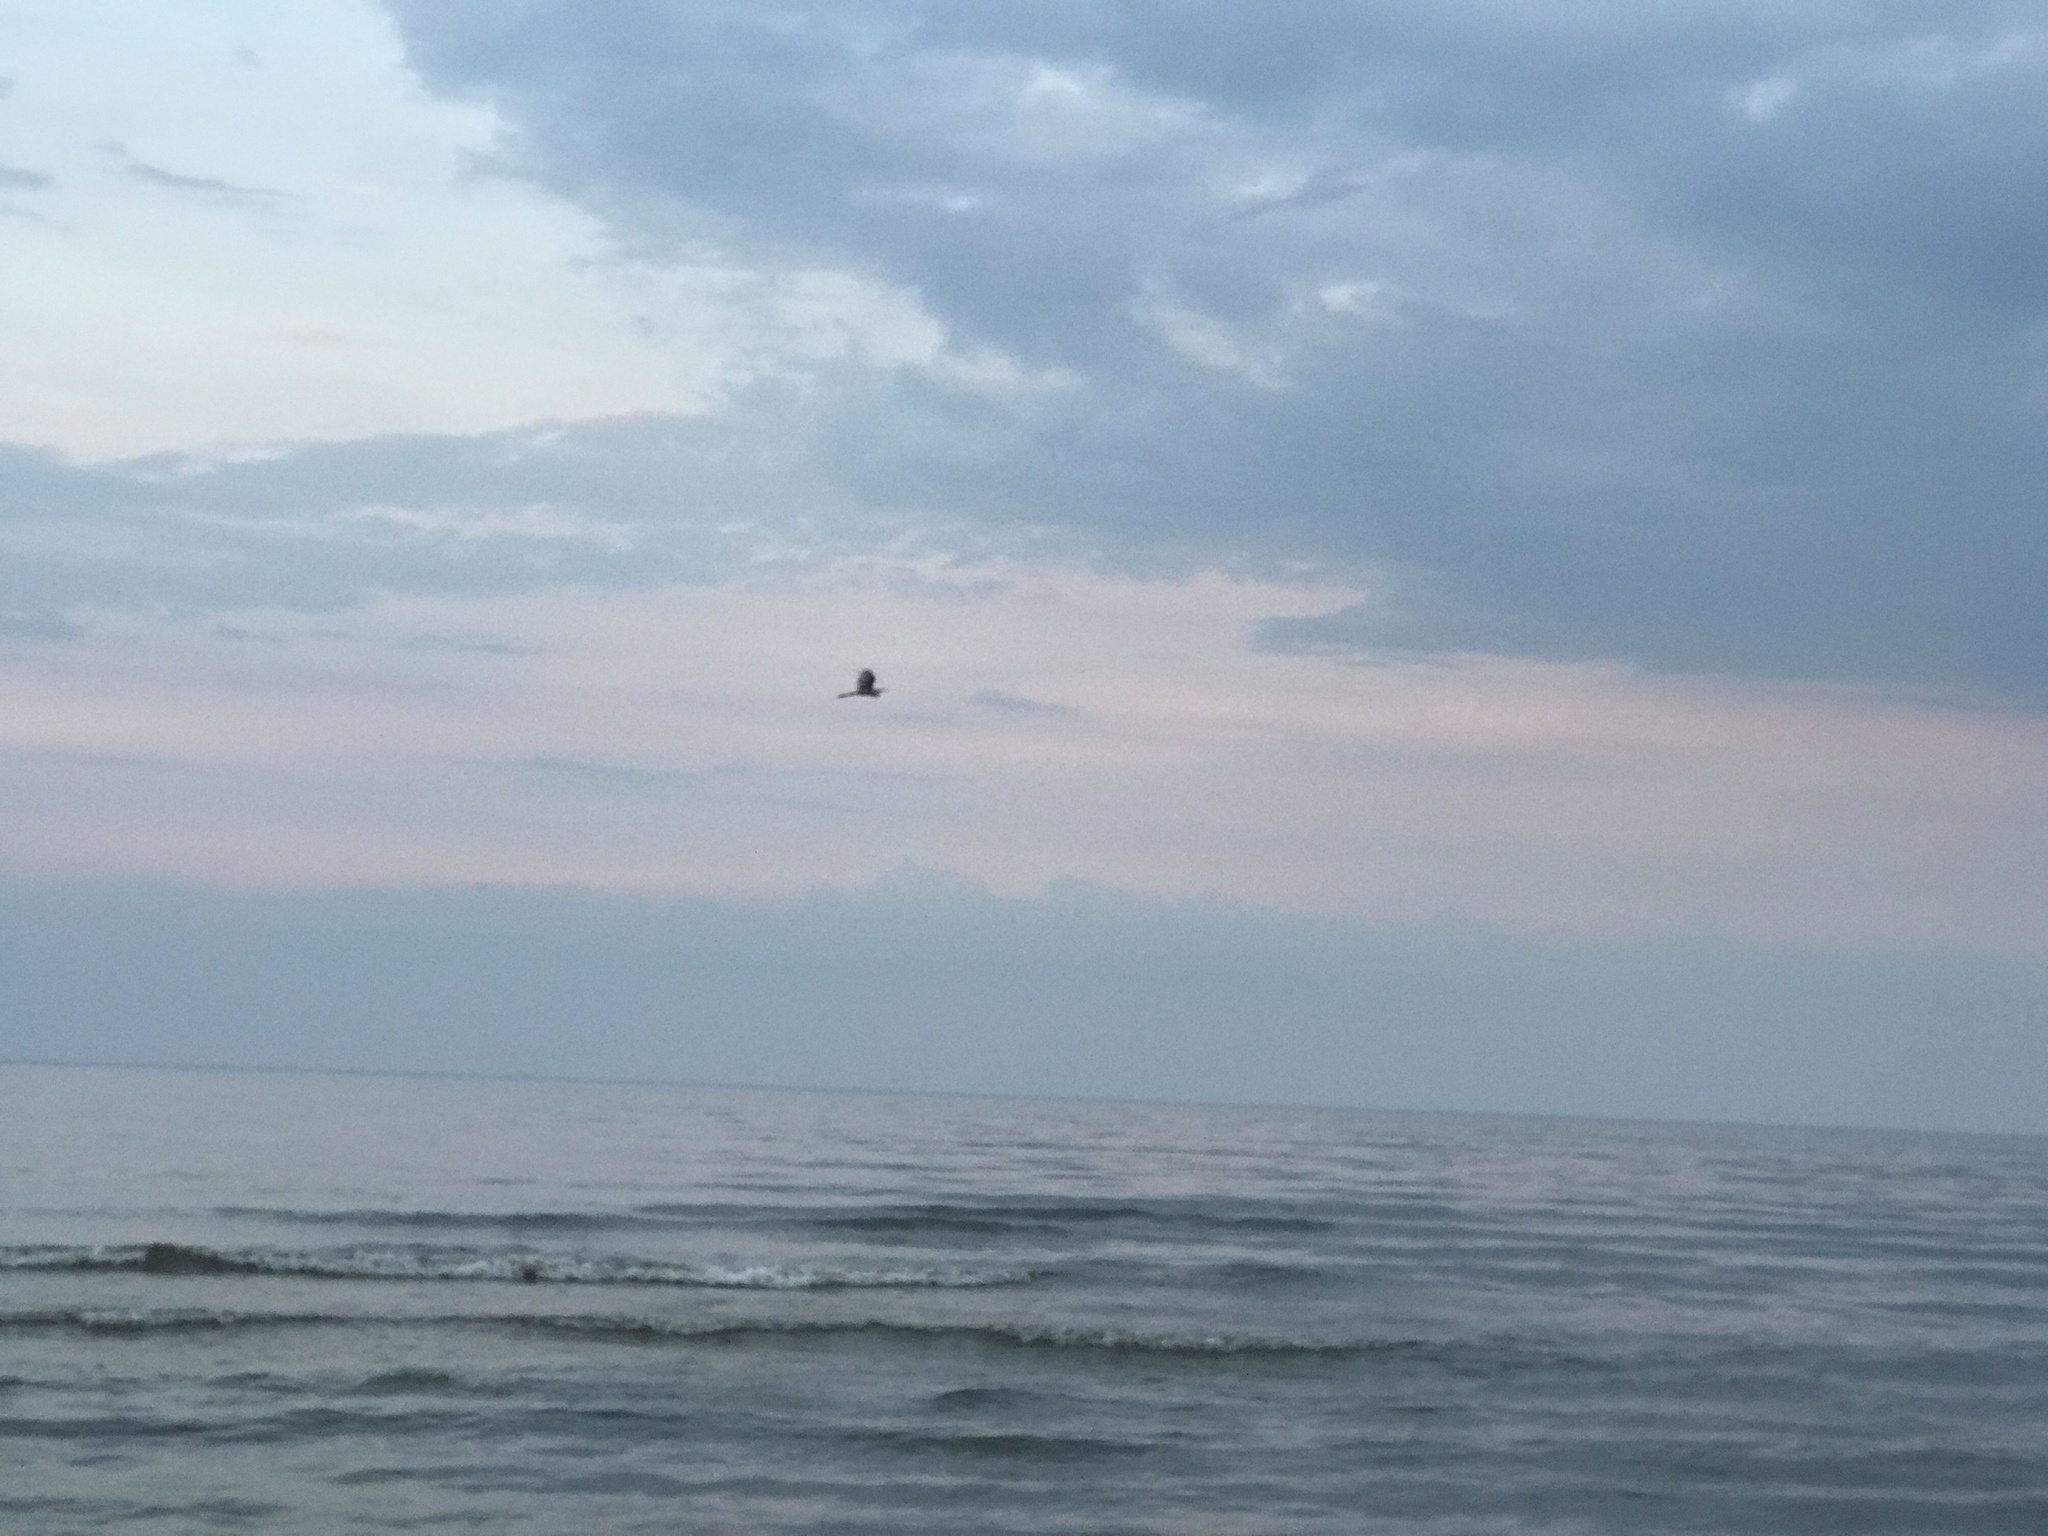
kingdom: Animalia
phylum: Chordata
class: Aves
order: Pelecaniformes
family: Ardeidae
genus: Ardea
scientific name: Ardea alba
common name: Great egret
